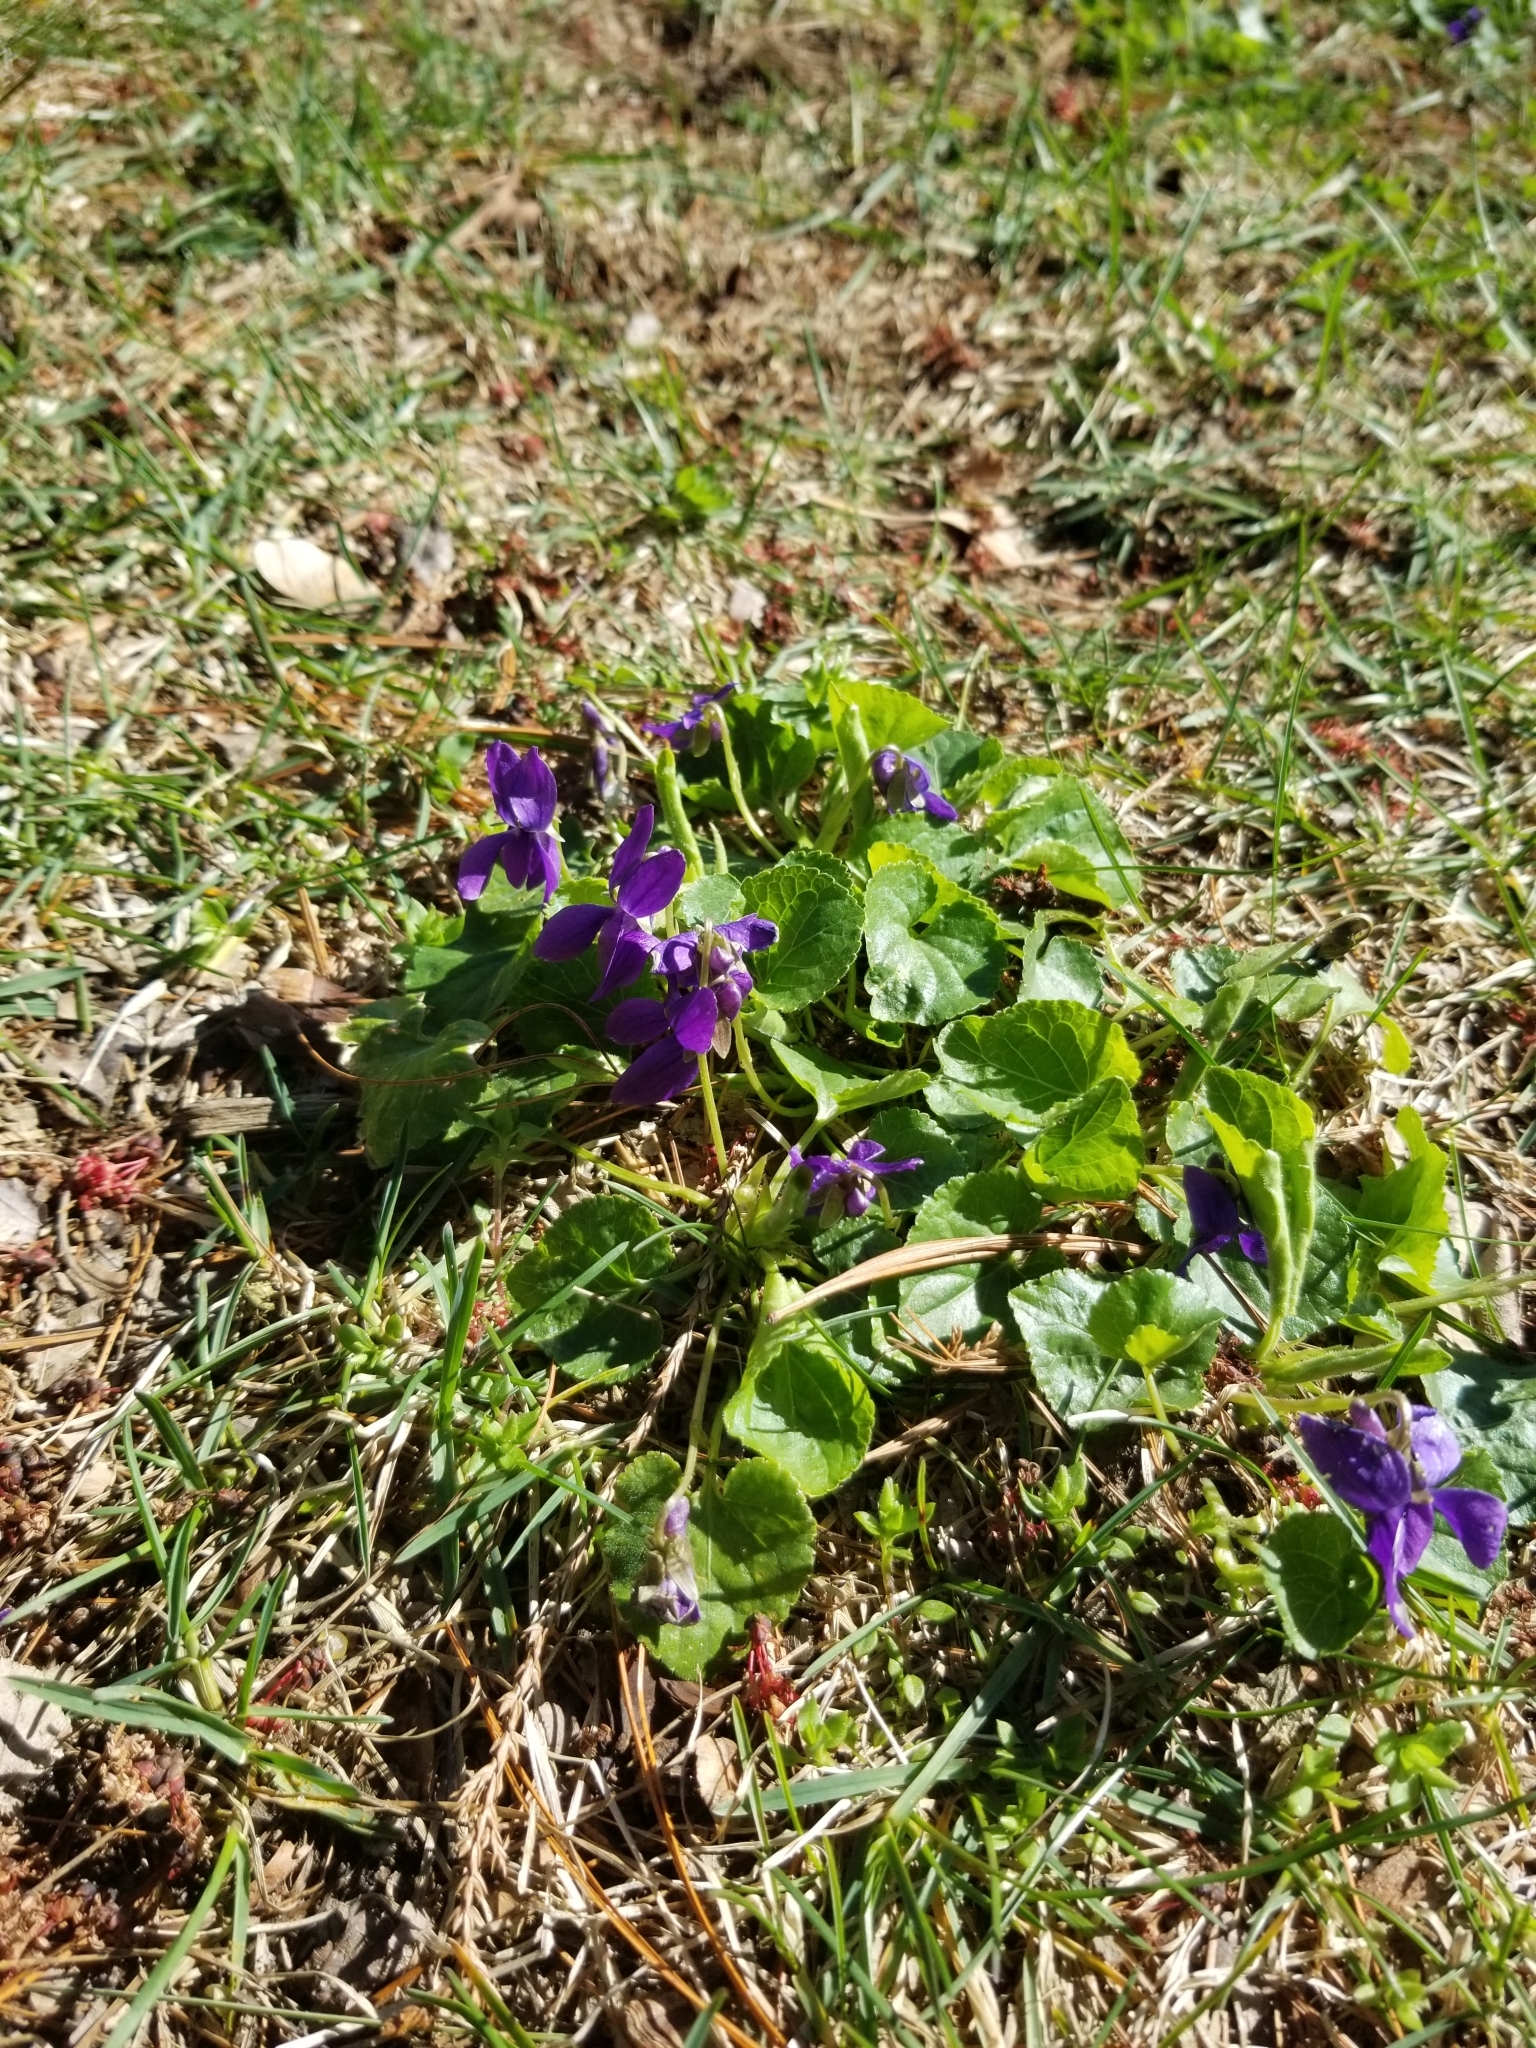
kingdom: Plantae
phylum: Tracheophyta
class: Magnoliopsida
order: Malpighiales
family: Violaceae
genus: Viola
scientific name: Viola odorata
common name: Sweet violet
